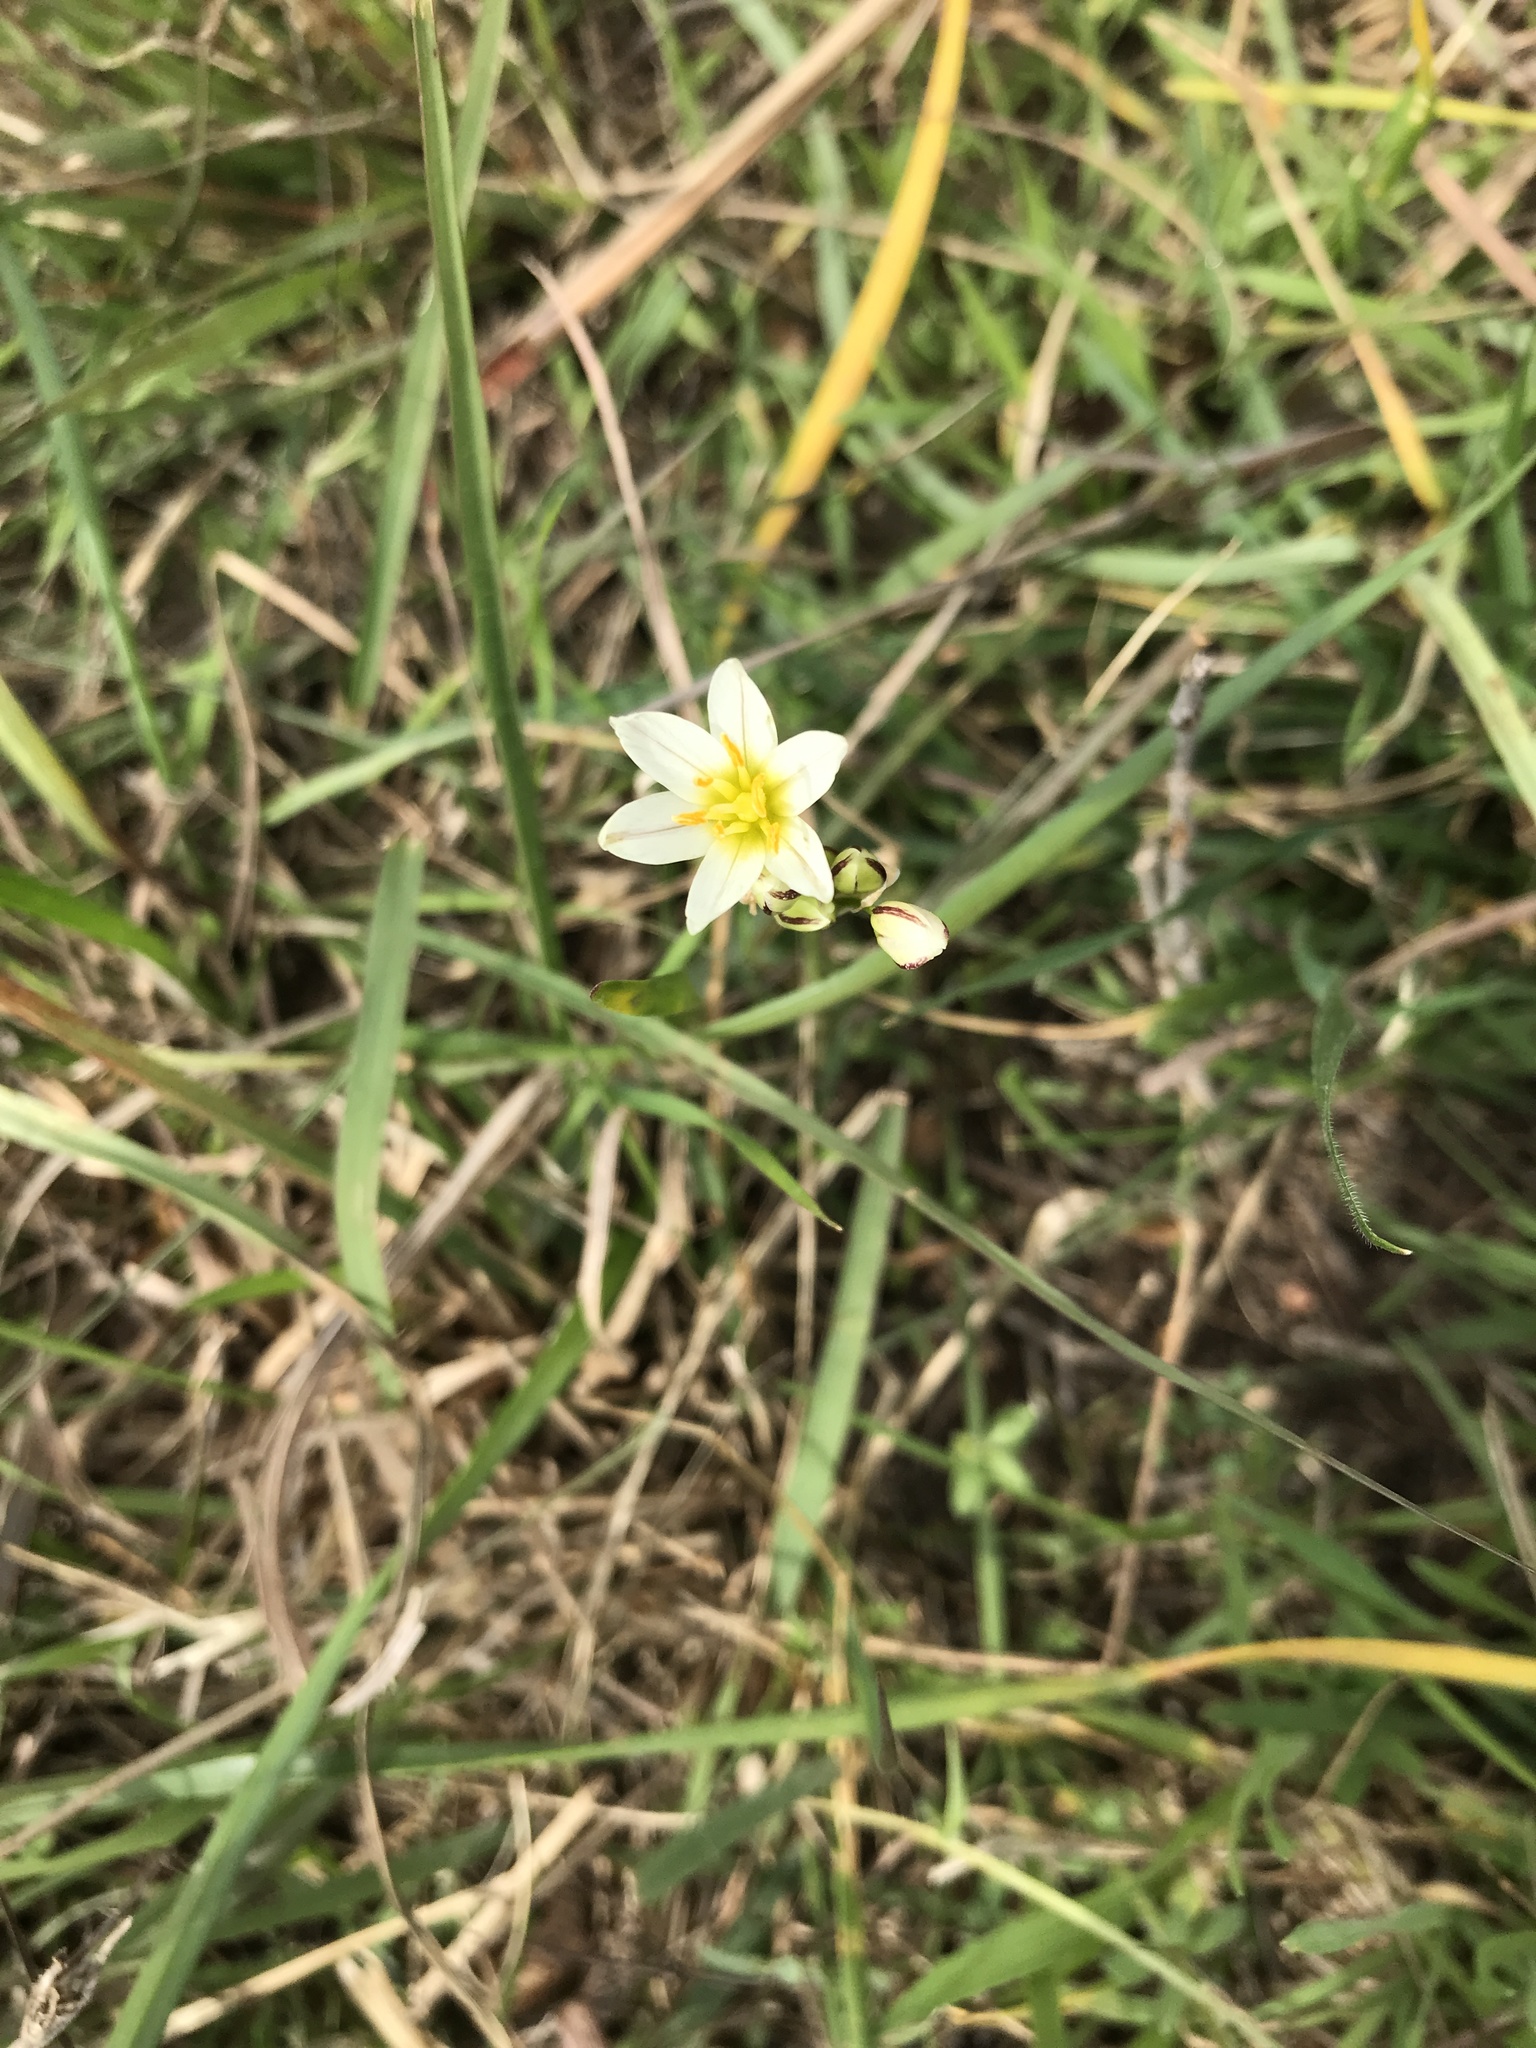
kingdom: Plantae
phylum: Tracheophyta
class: Liliopsida
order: Asparagales
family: Amaryllidaceae
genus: Nothoscordum
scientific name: Nothoscordum bivalve
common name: Crow-poison
